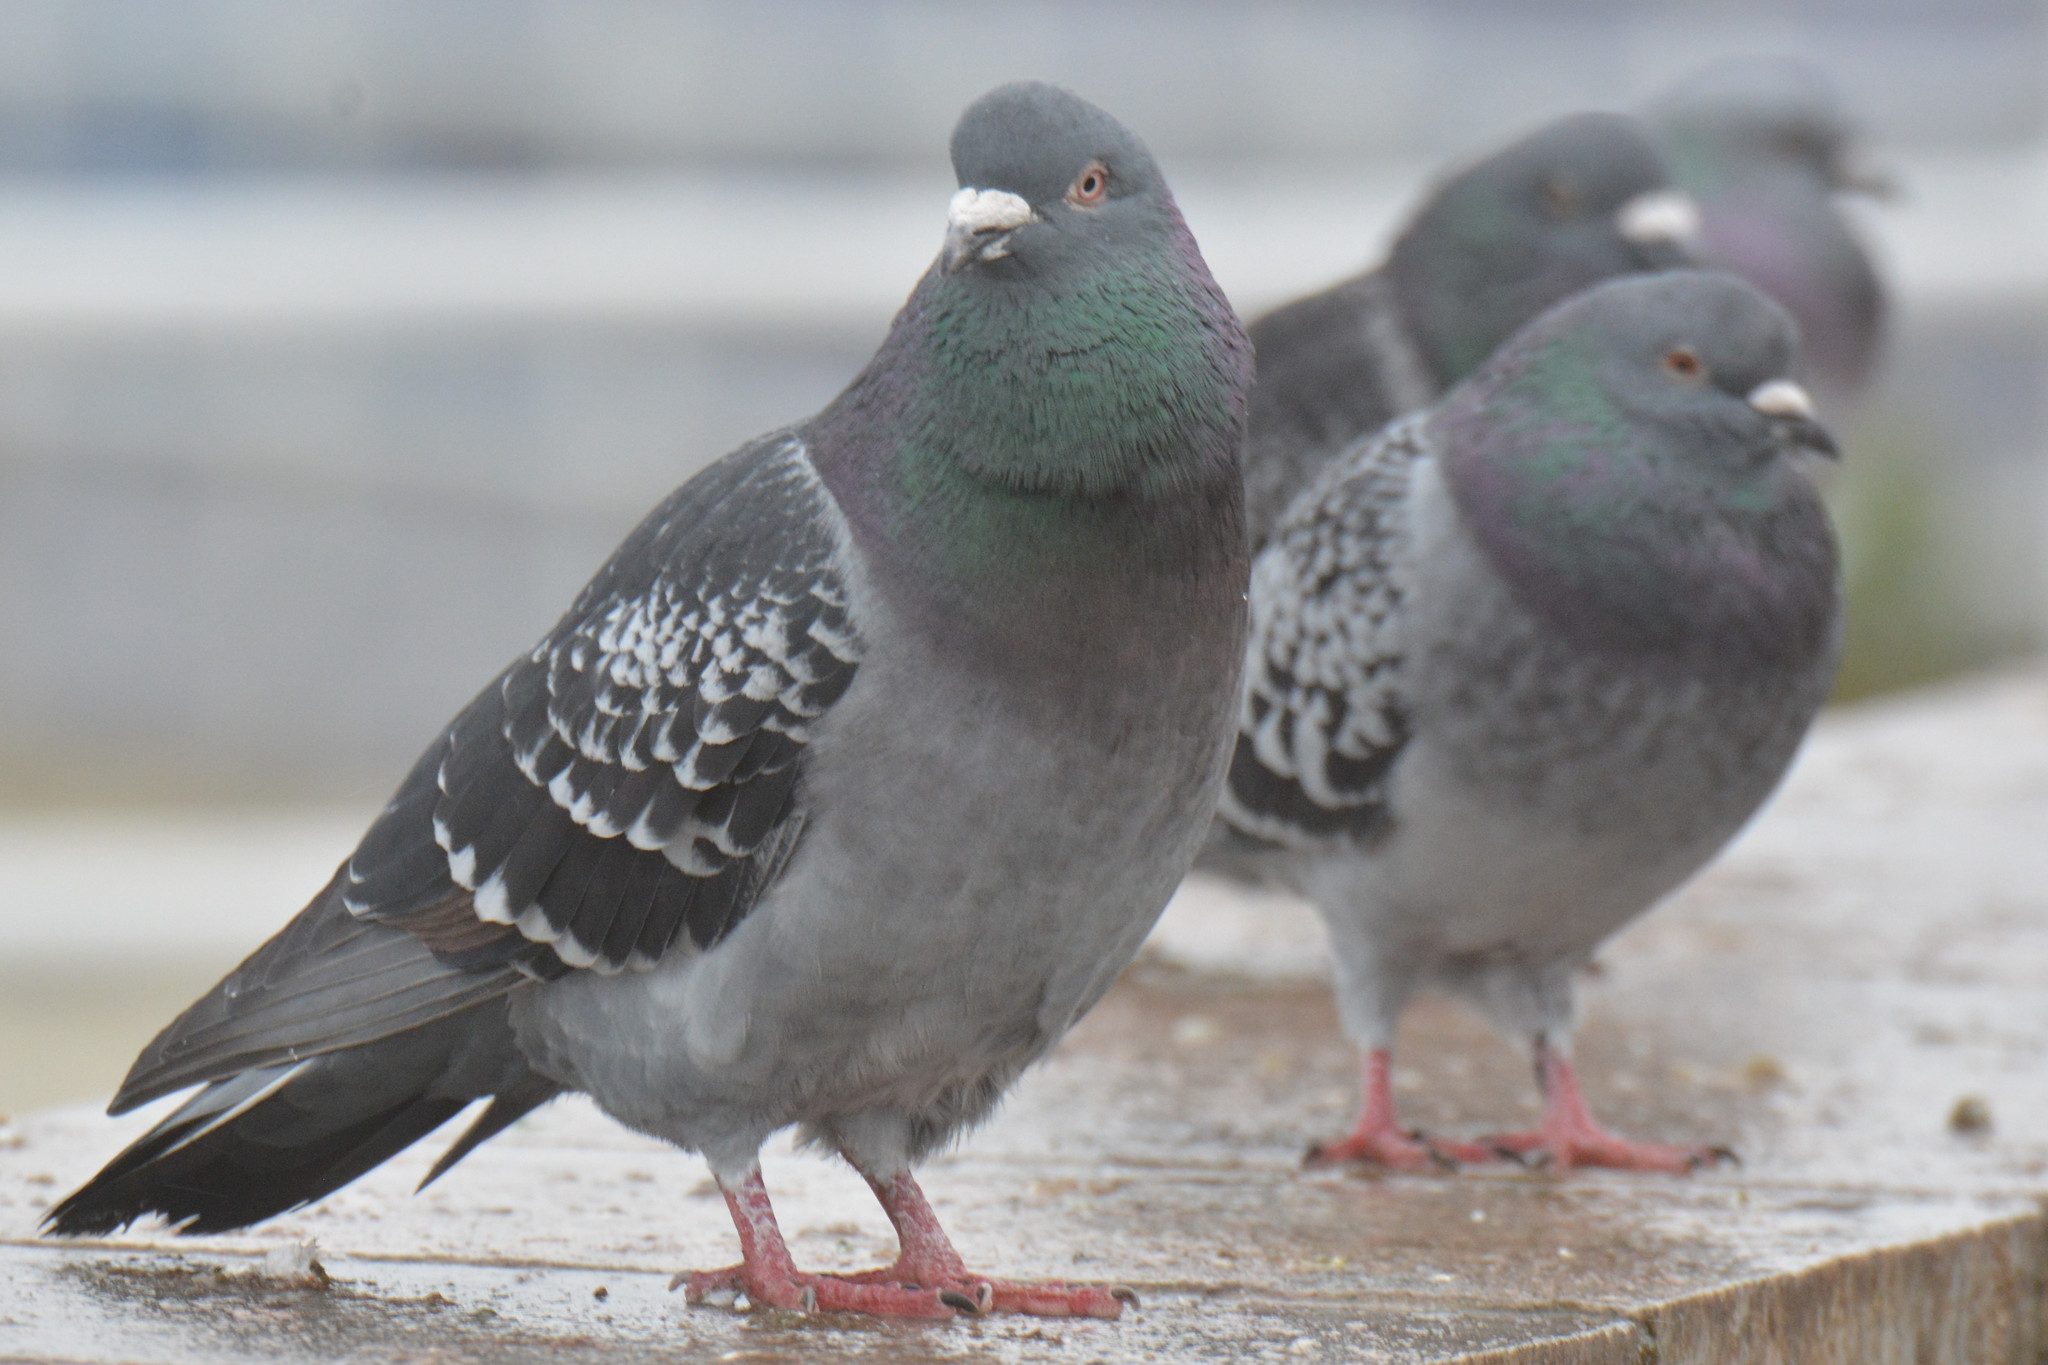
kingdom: Animalia
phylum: Chordata
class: Aves
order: Columbiformes
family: Columbidae
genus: Columba
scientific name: Columba livia
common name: Rock pigeon
